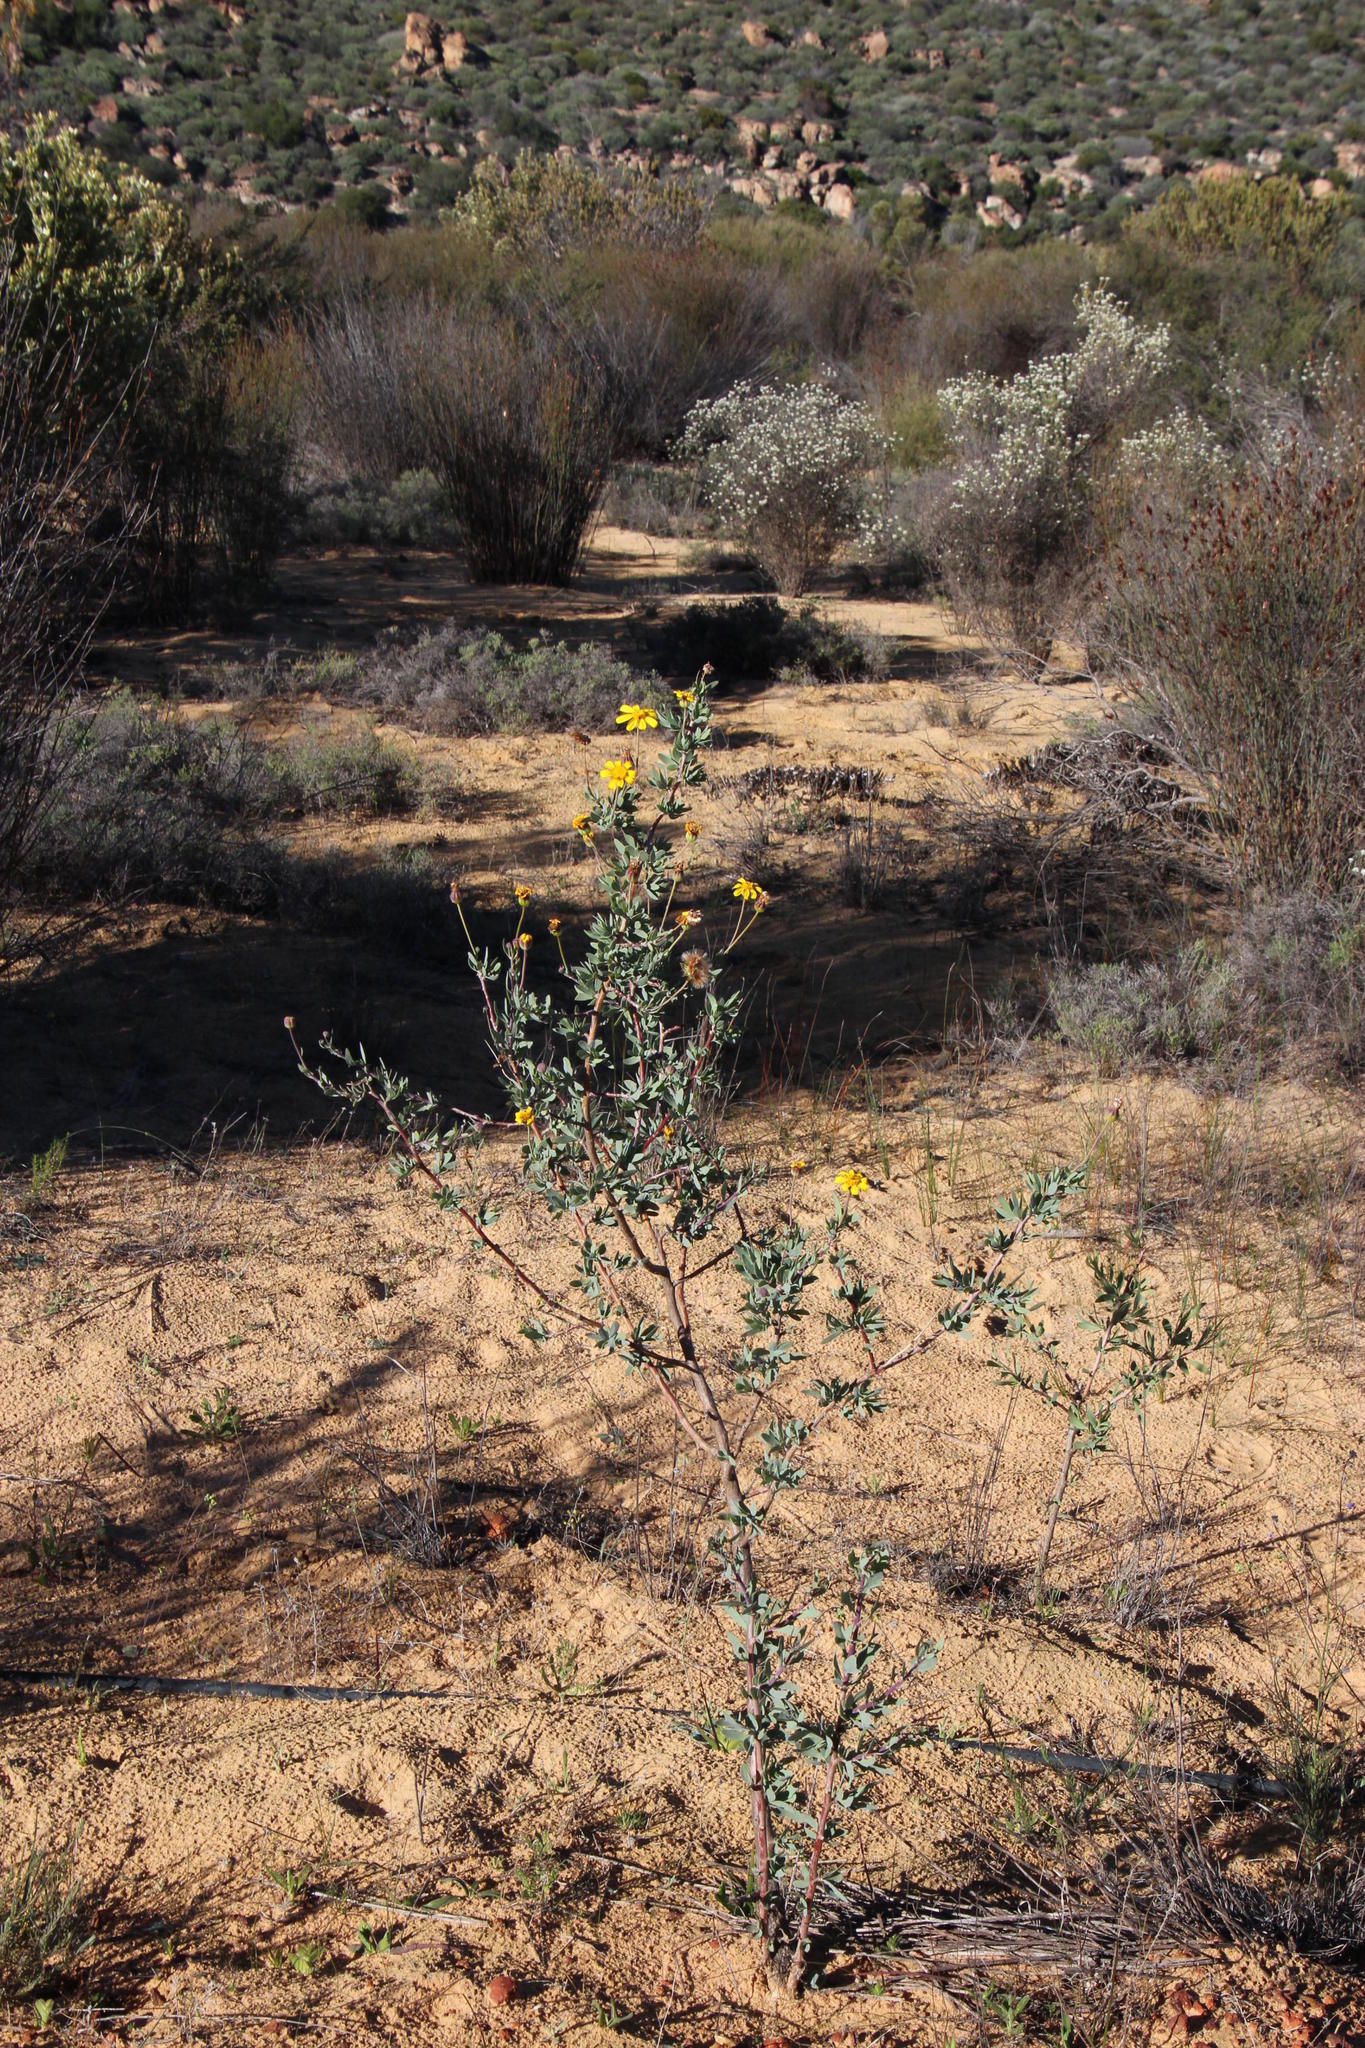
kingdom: Plantae
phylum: Tracheophyta
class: Magnoliopsida
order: Asterales
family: Asteraceae
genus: Othonna
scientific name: Othonna coronopifolia
